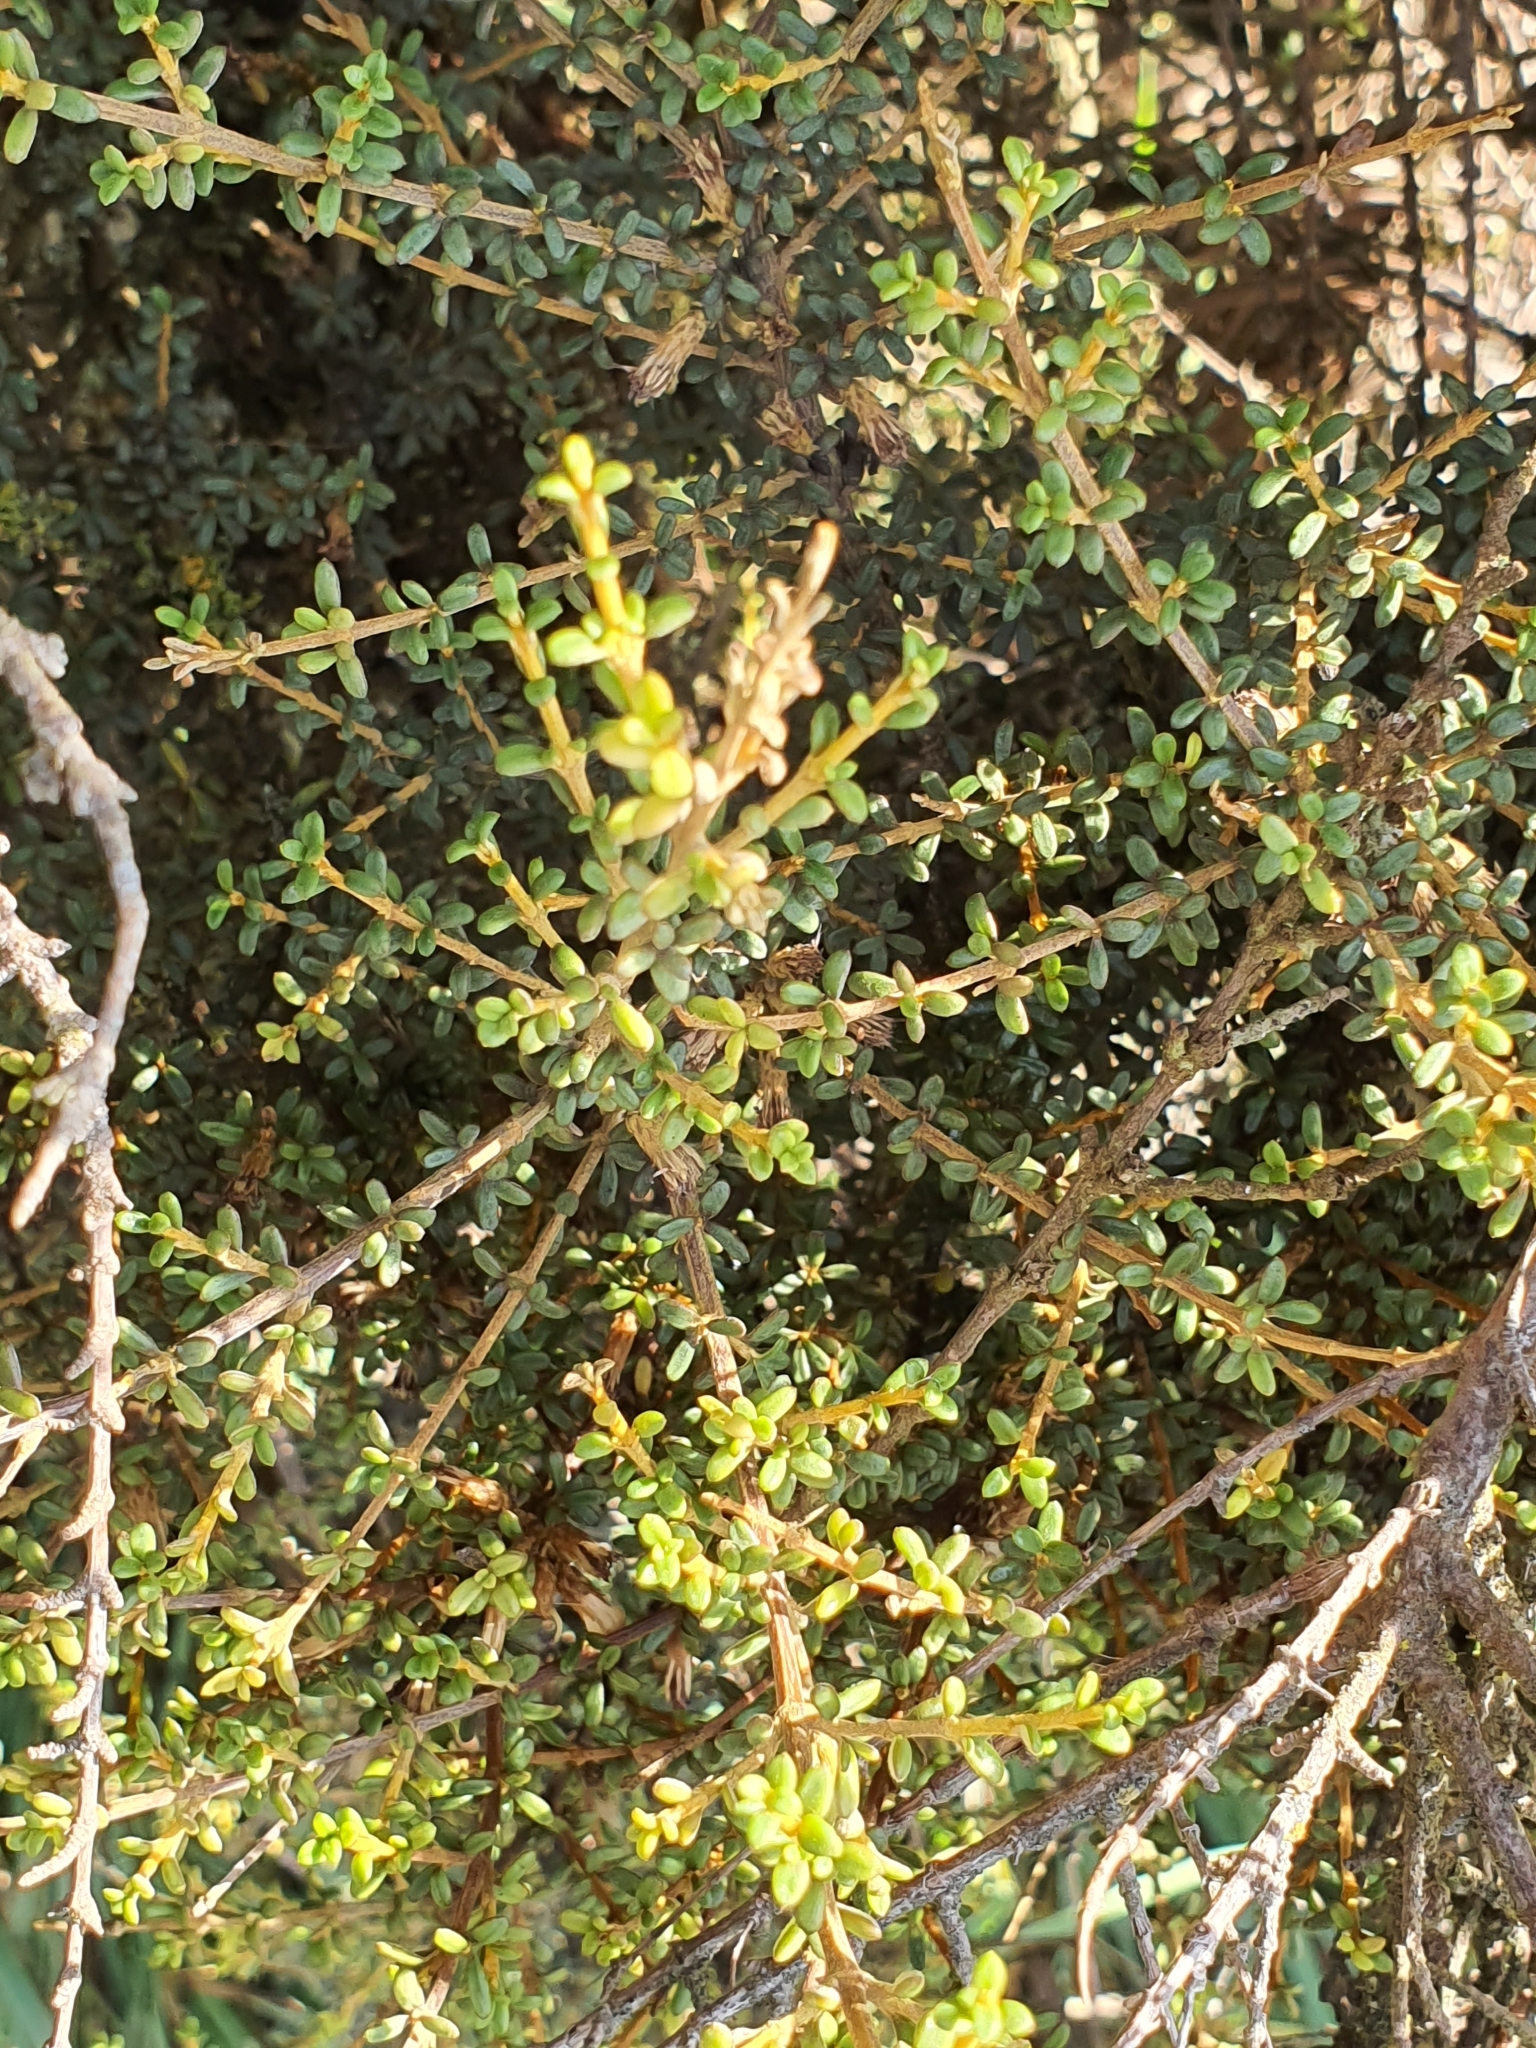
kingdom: Plantae
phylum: Tracheophyta
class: Magnoliopsida
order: Asterales
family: Asteraceae
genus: Olearia
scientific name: Olearia solandri
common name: Coastal daisybush
